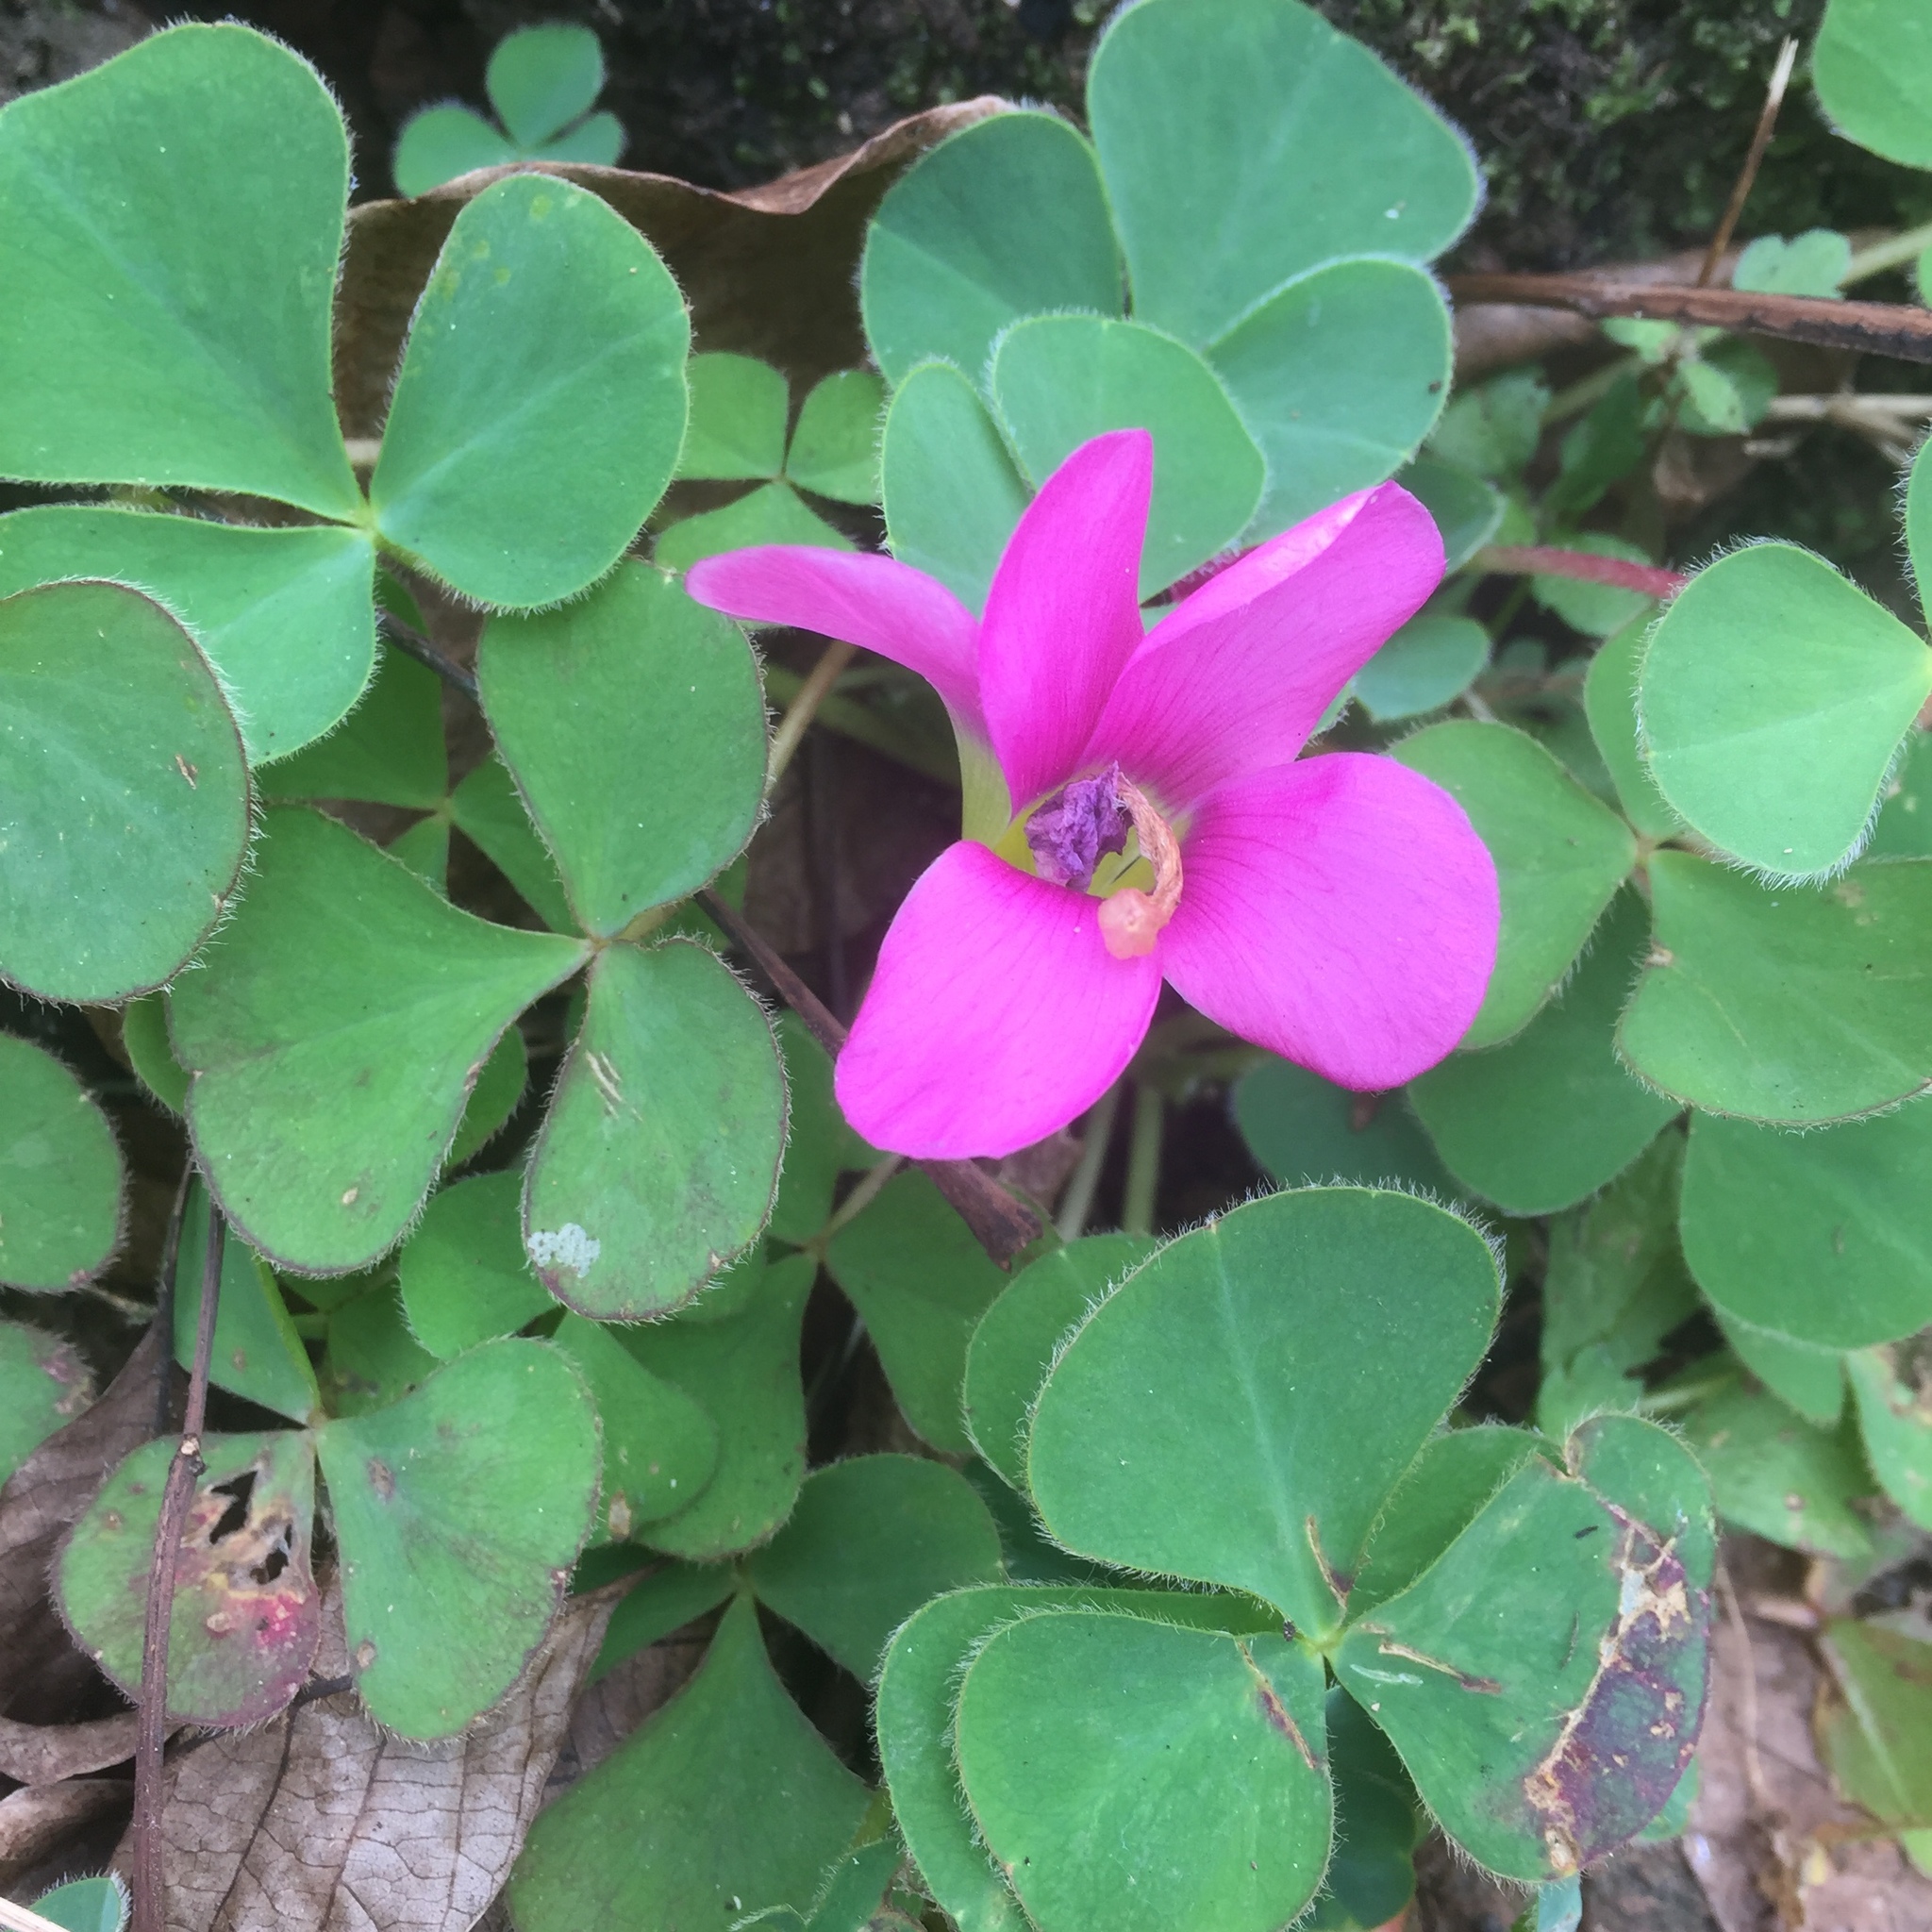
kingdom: Plantae
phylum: Tracheophyta
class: Magnoliopsida
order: Oxalidales
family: Oxalidaceae
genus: Oxalis
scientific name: Oxalis purpurea
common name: Purple woodsorrel
